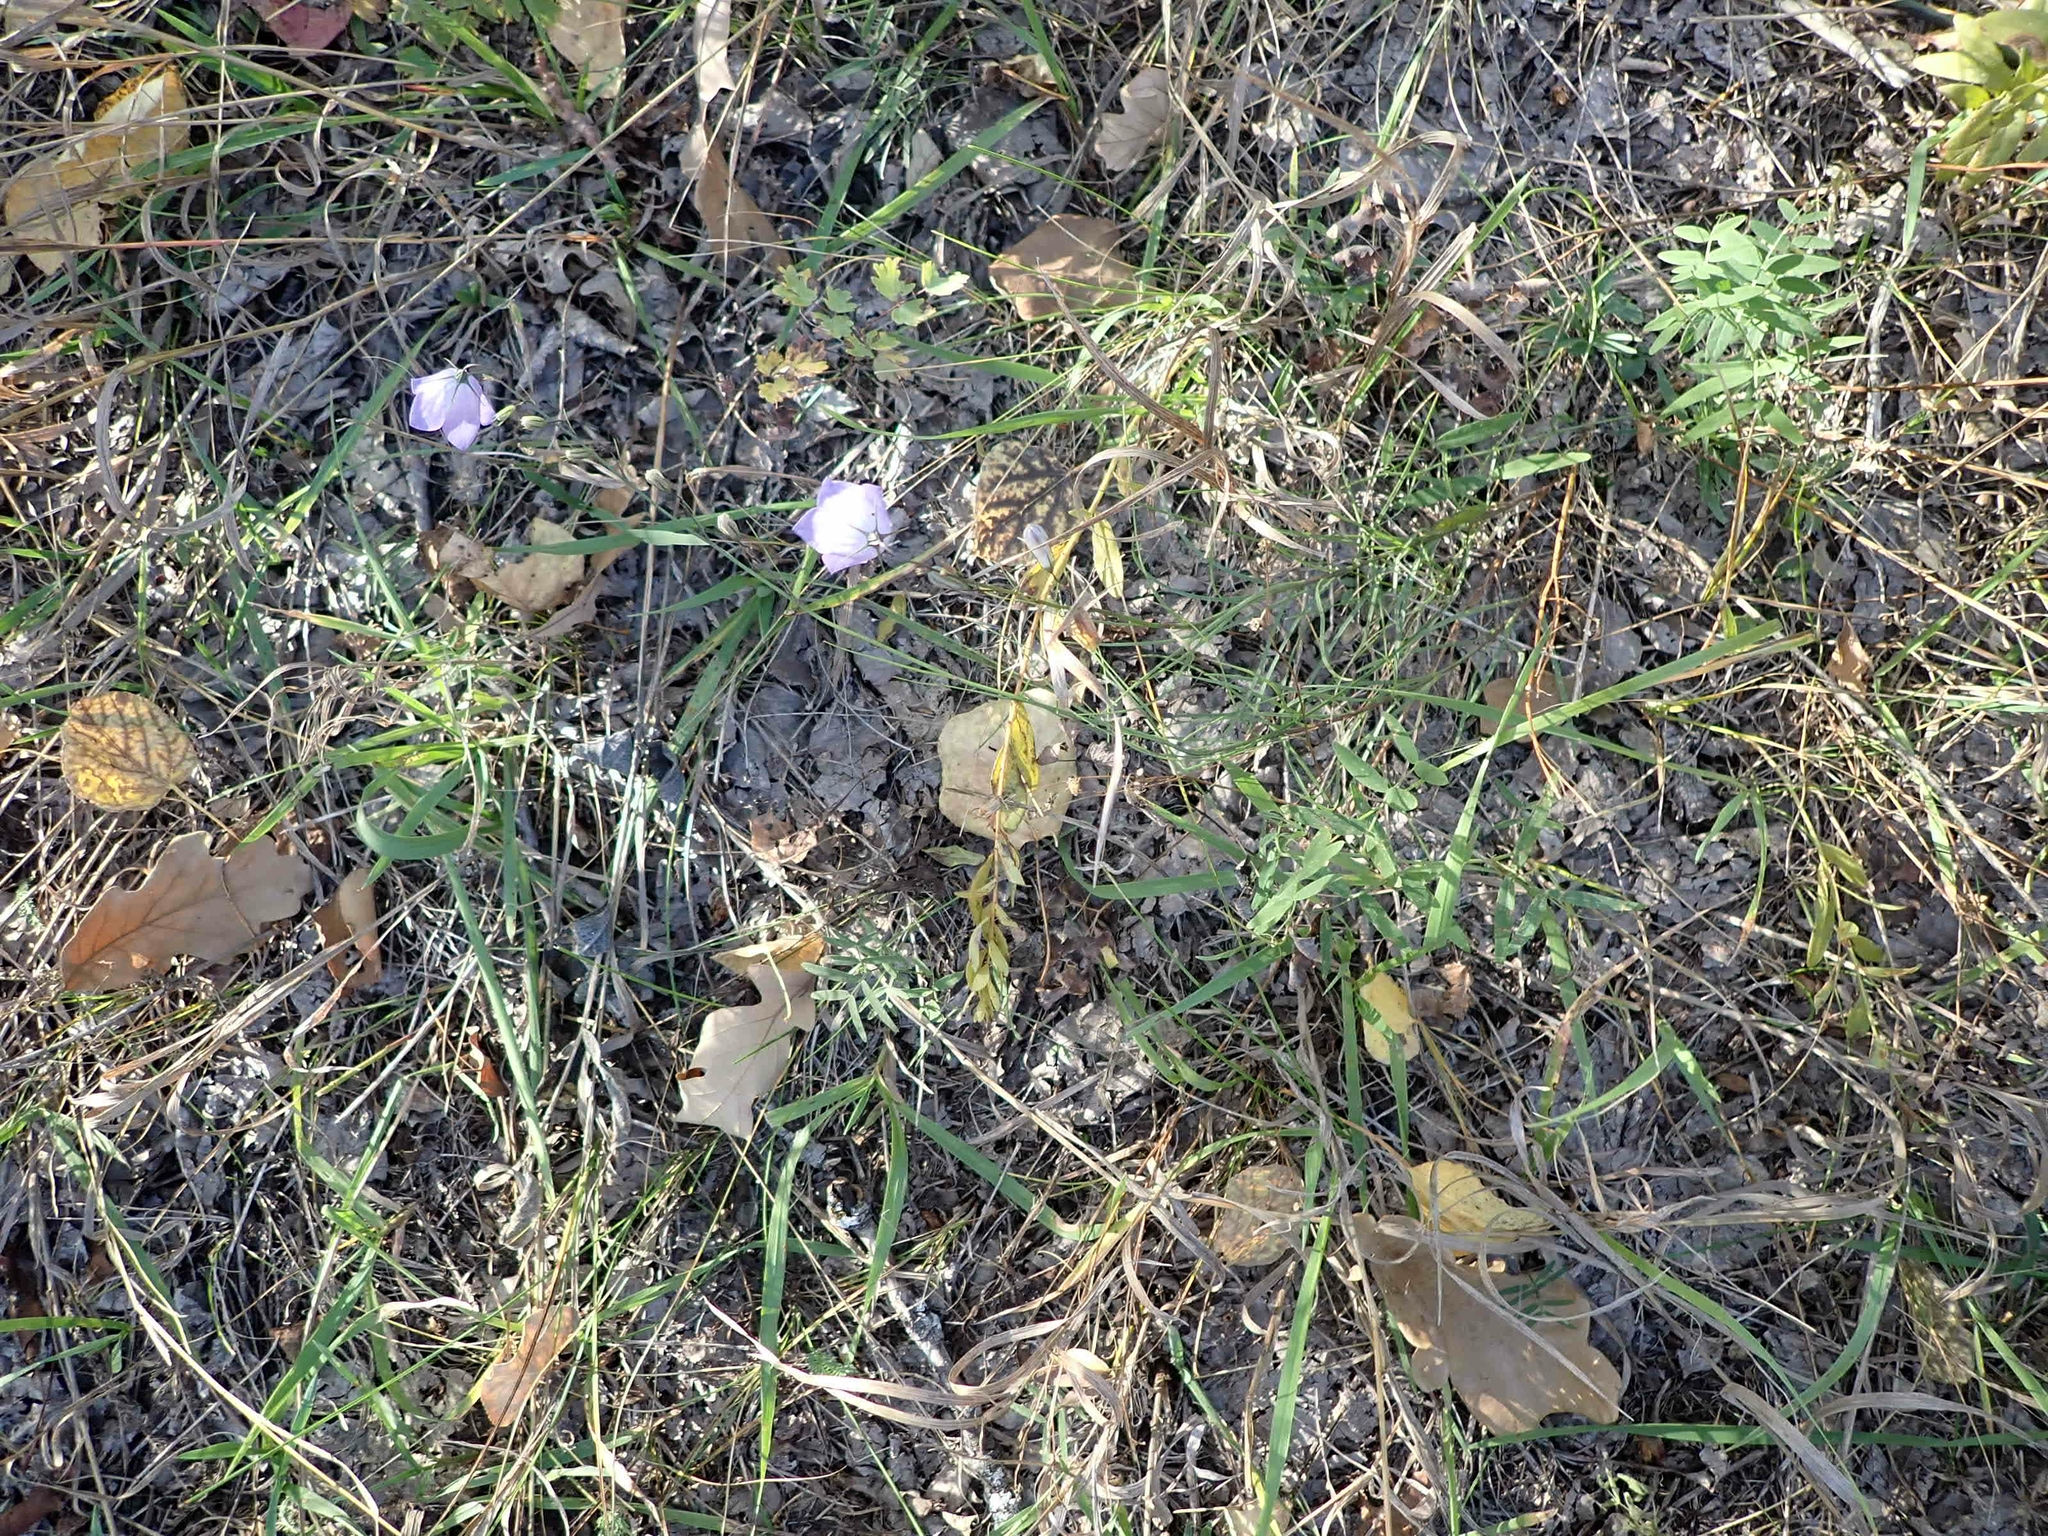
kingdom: Plantae
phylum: Tracheophyta
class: Magnoliopsida
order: Asterales
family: Campanulaceae
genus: Campanula
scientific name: Campanula petiolata
